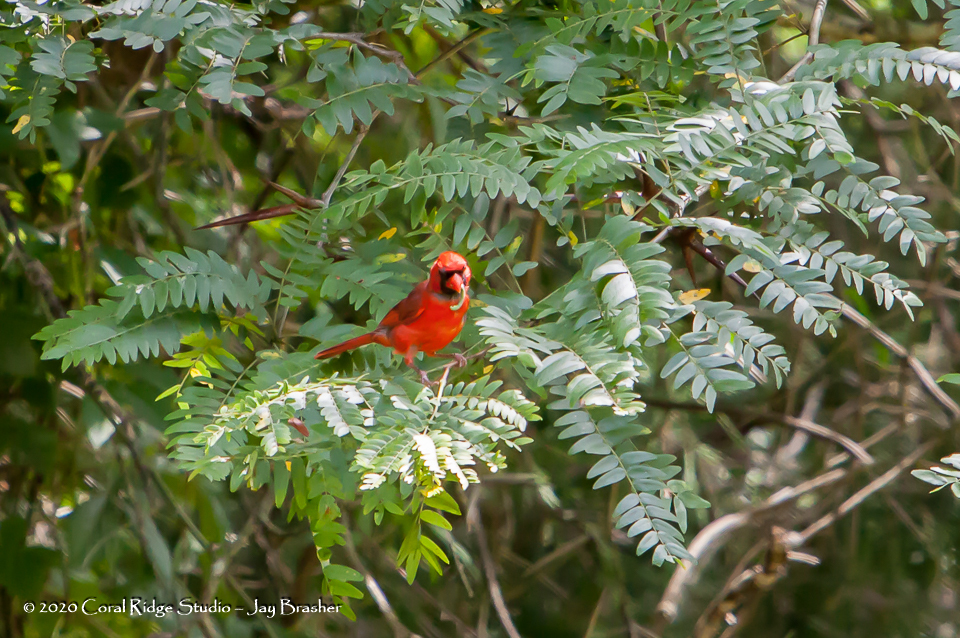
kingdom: Animalia
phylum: Chordata
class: Aves
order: Passeriformes
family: Cardinalidae
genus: Cardinalis
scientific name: Cardinalis cardinalis
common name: Northern cardinal
